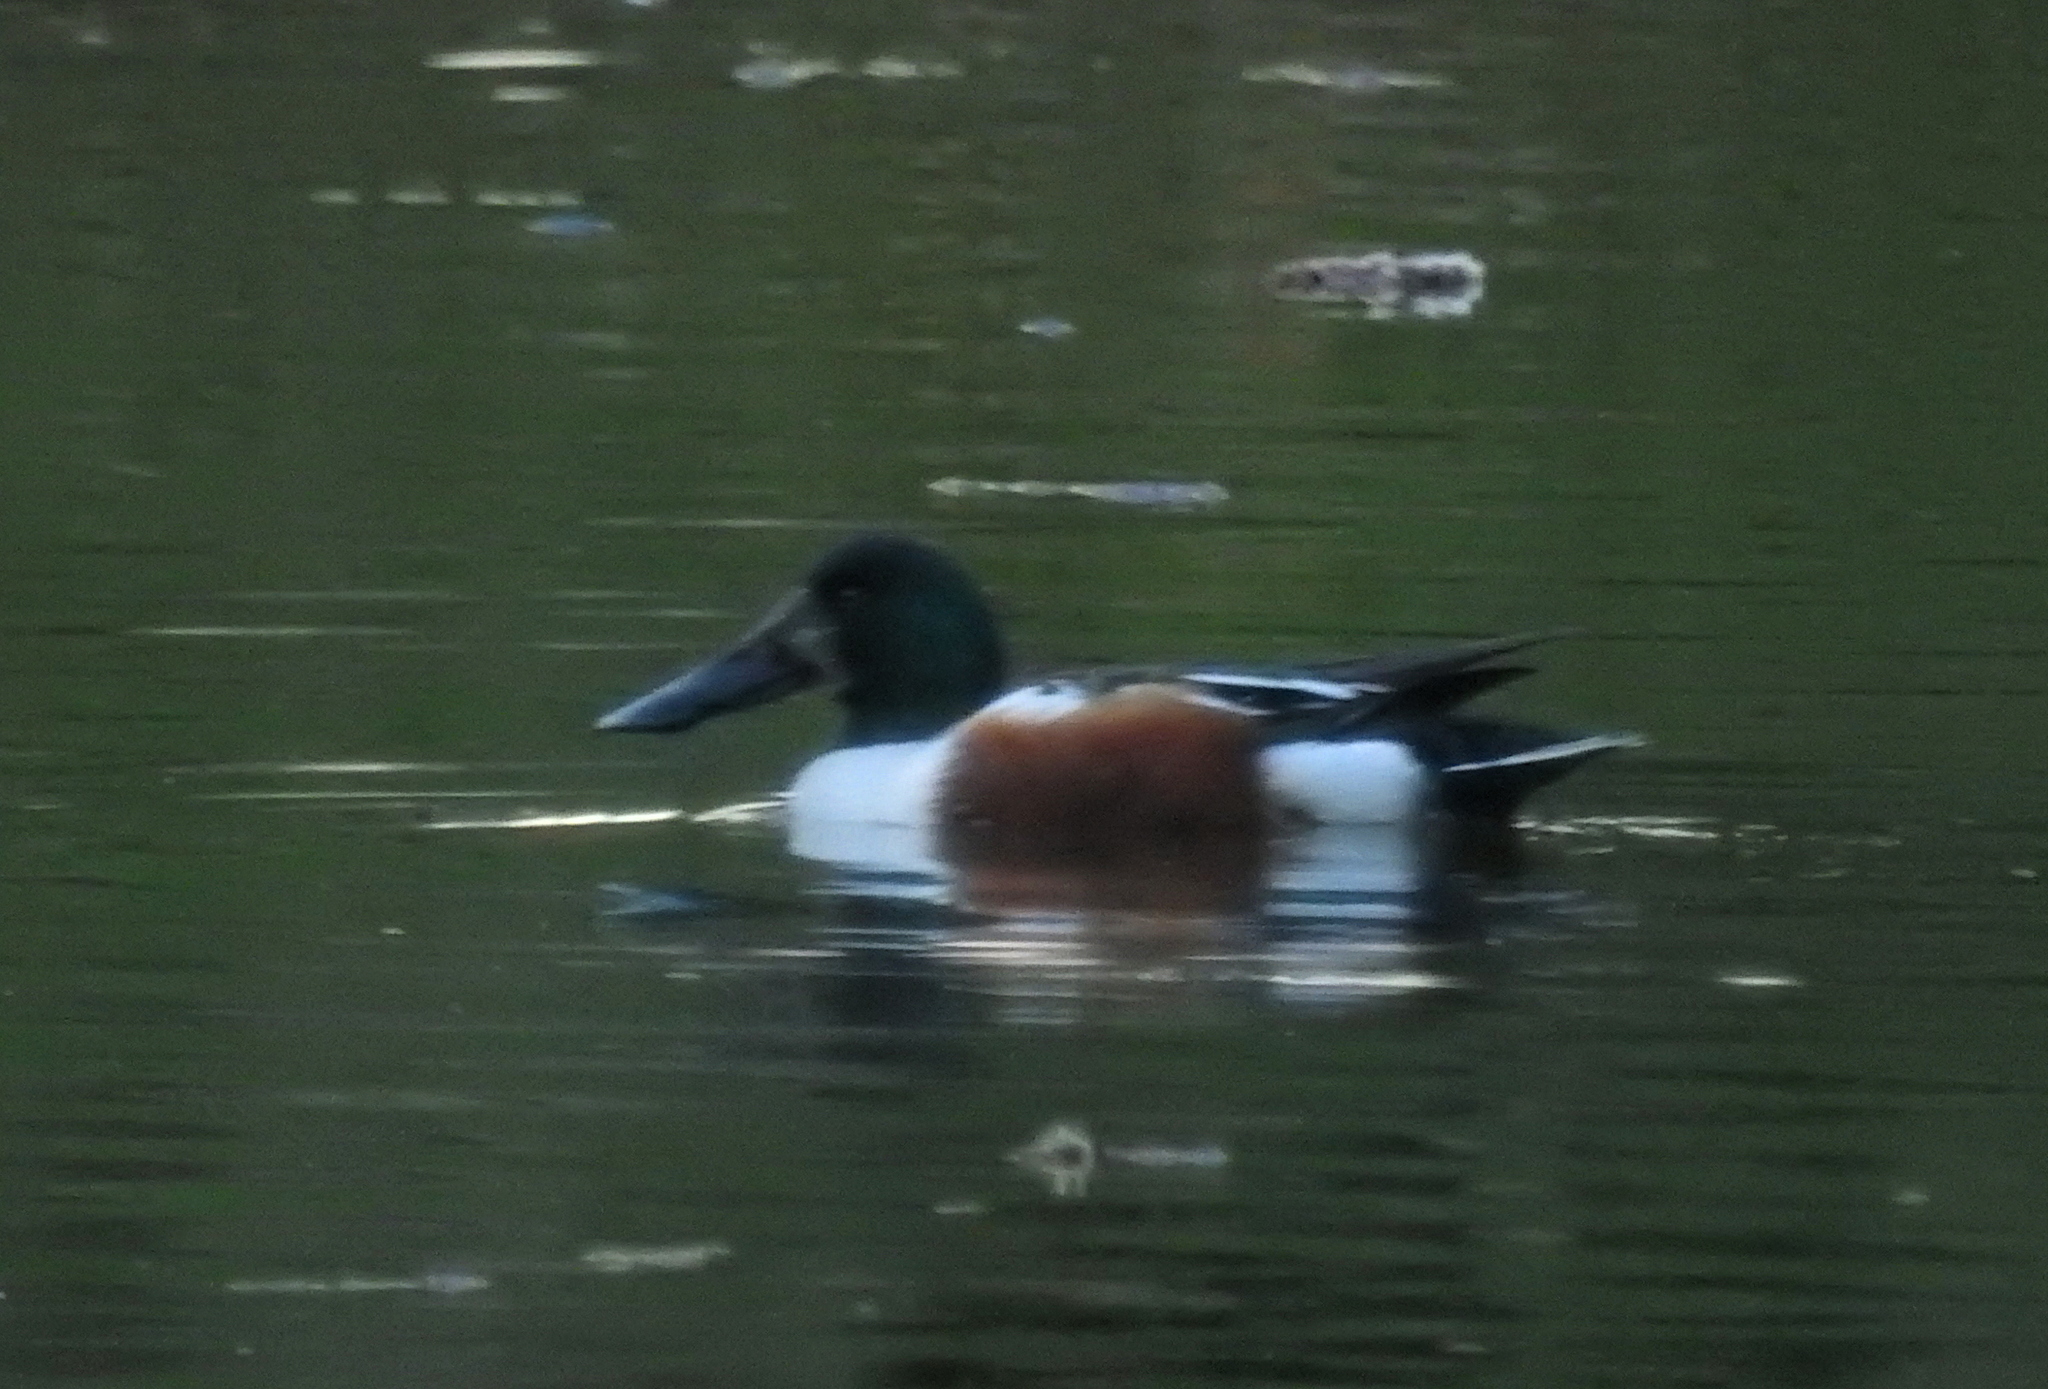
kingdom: Animalia
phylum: Chordata
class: Aves
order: Anseriformes
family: Anatidae
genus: Spatula
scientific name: Spatula clypeata
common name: Northern shoveler
